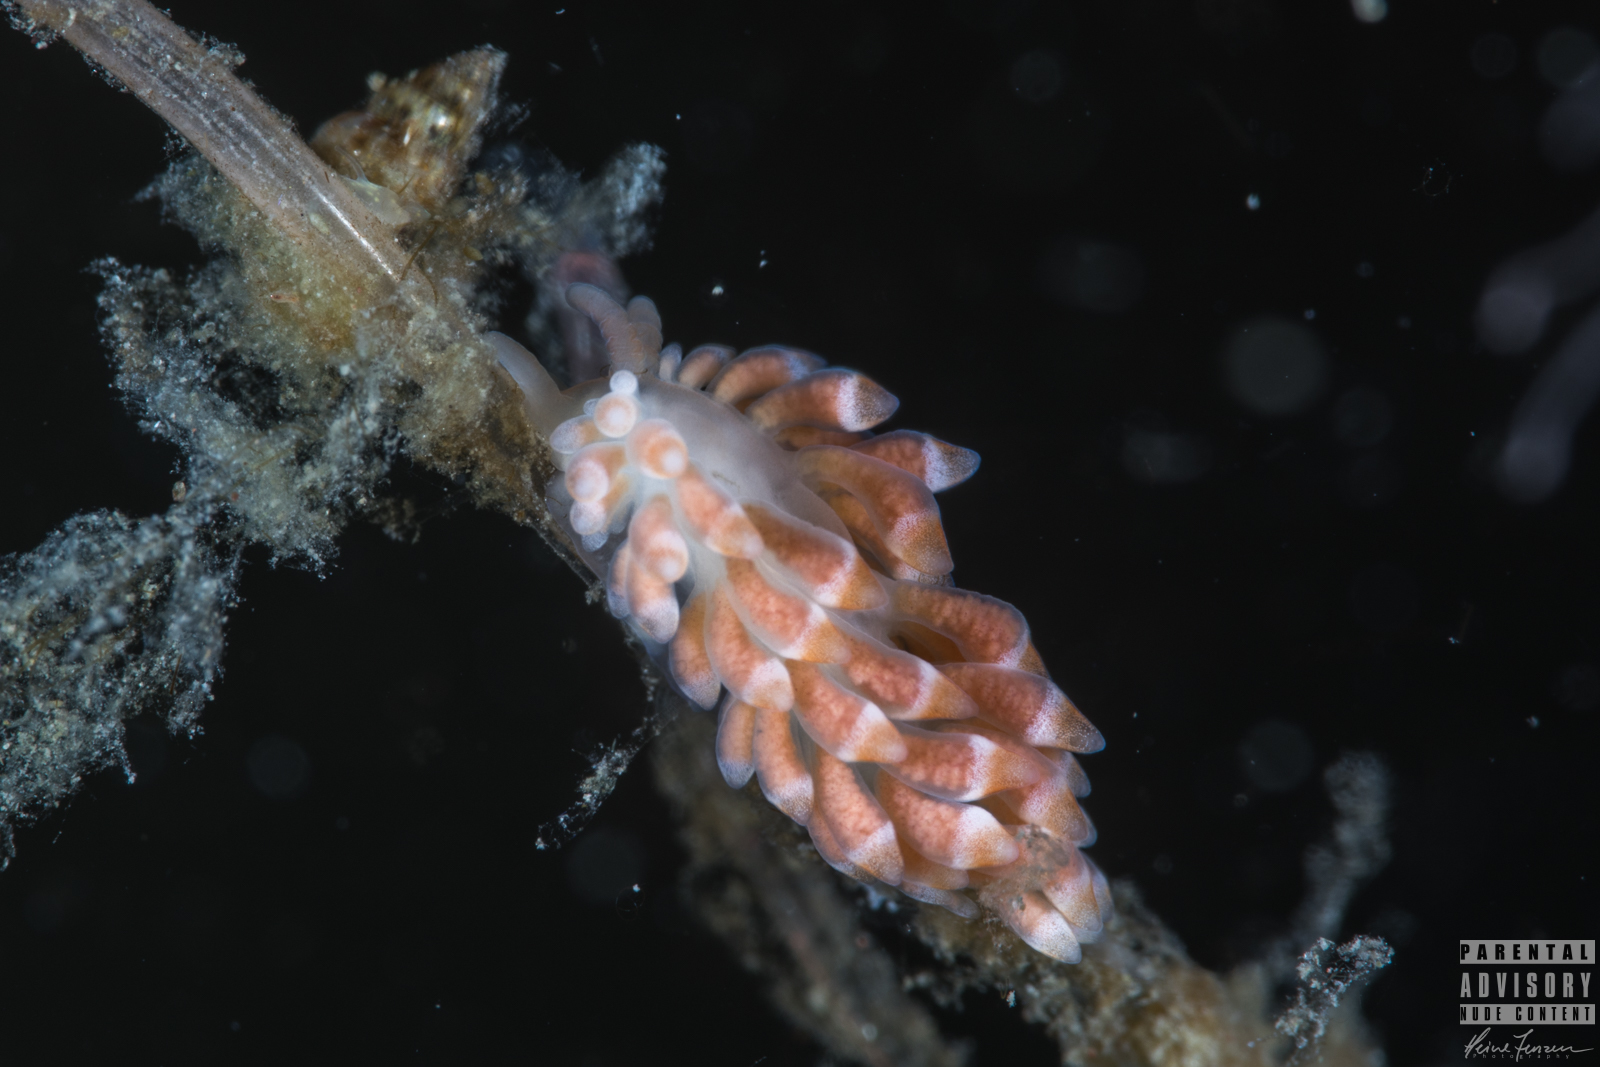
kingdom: Animalia
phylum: Mollusca
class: Gastropoda
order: Nudibranchia
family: Trinchesiidae
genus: Catriona
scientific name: Catriona aurantia
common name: Corange-tip cuthona
